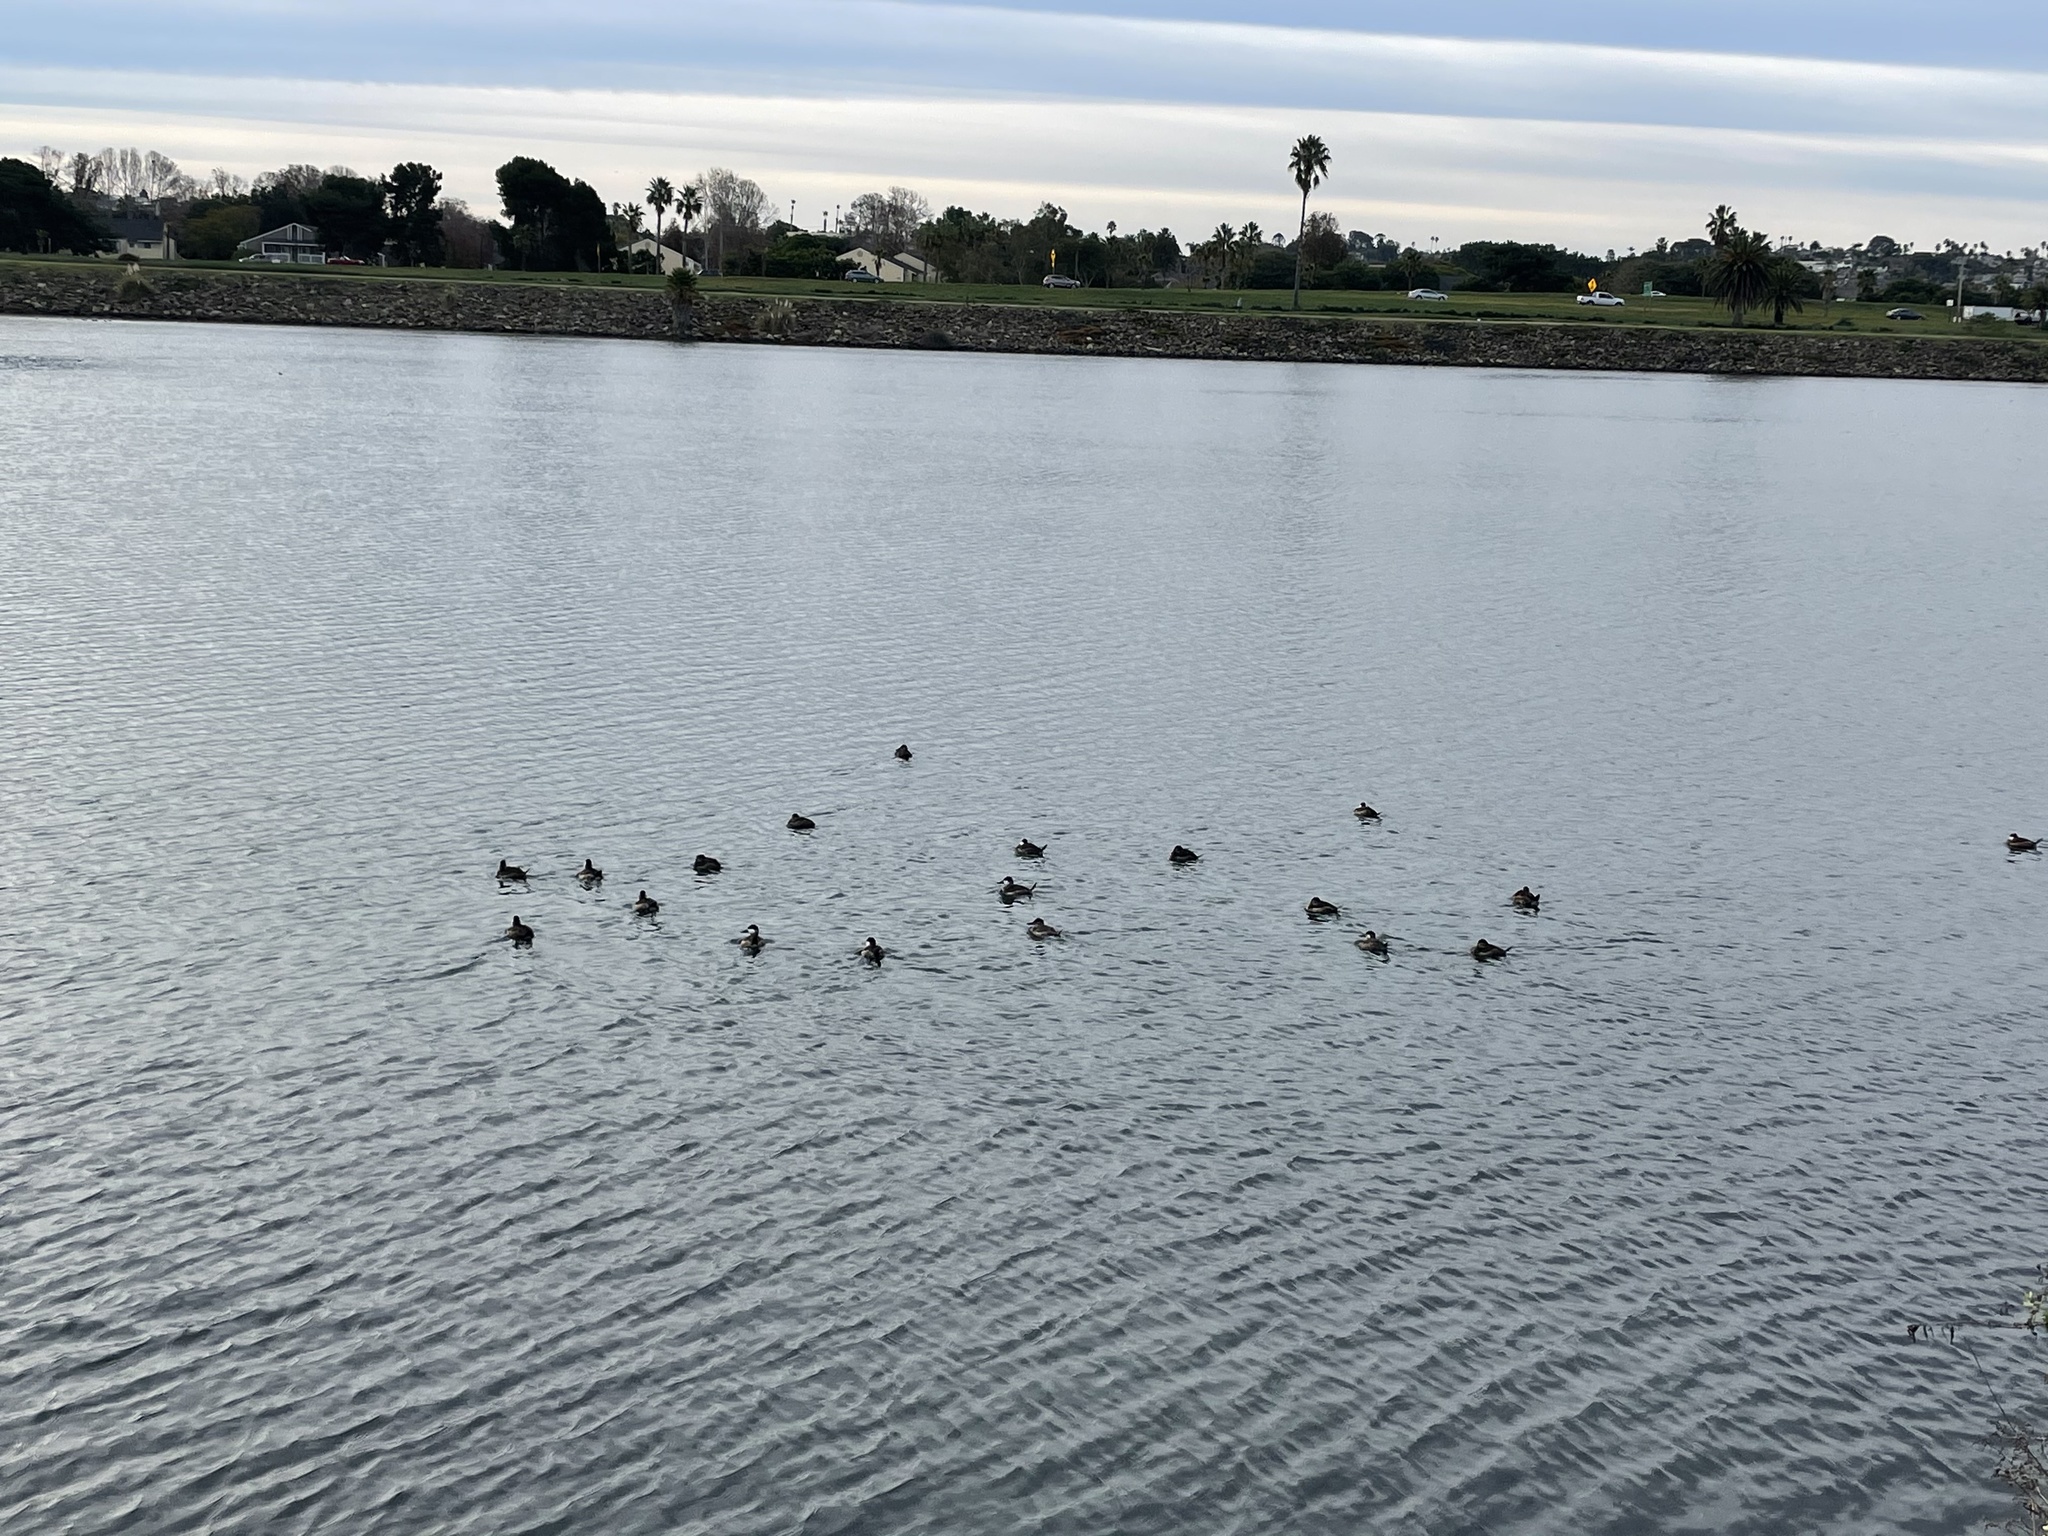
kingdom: Animalia
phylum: Chordata
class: Aves
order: Anseriformes
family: Anatidae
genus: Oxyura
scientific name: Oxyura jamaicensis
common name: Ruddy duck
